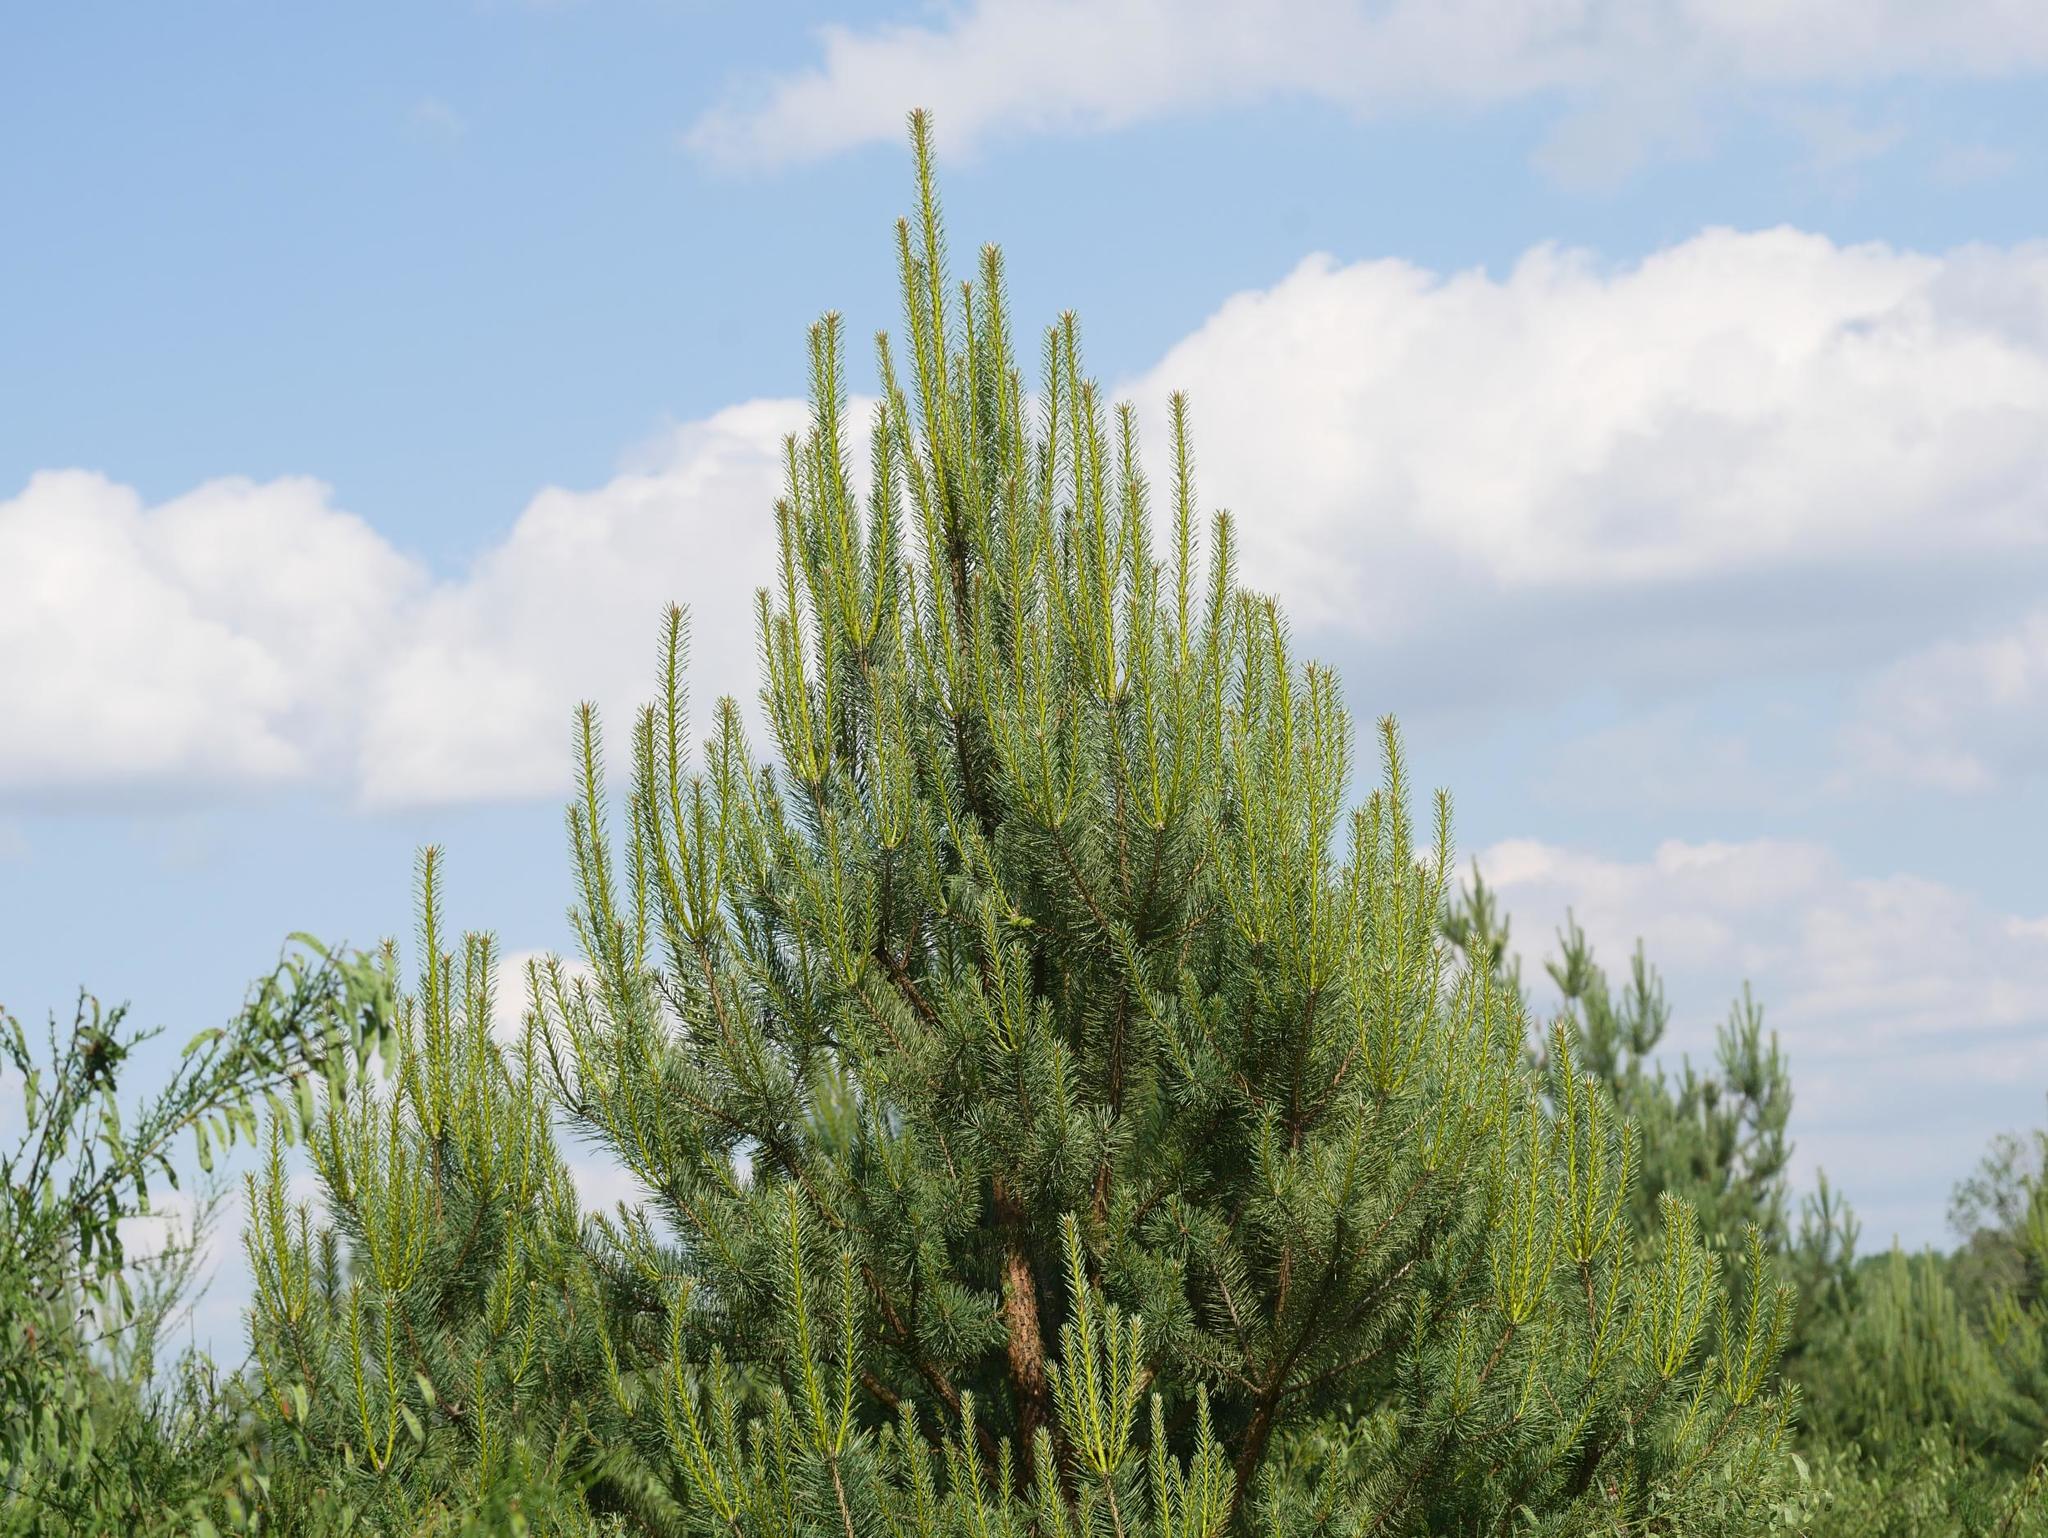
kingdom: Plantae
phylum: Tracheophyta
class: Pinopsida
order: Pinales
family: Pinaceae
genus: Pinus
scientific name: Pinus sylvestris
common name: Scots pine
